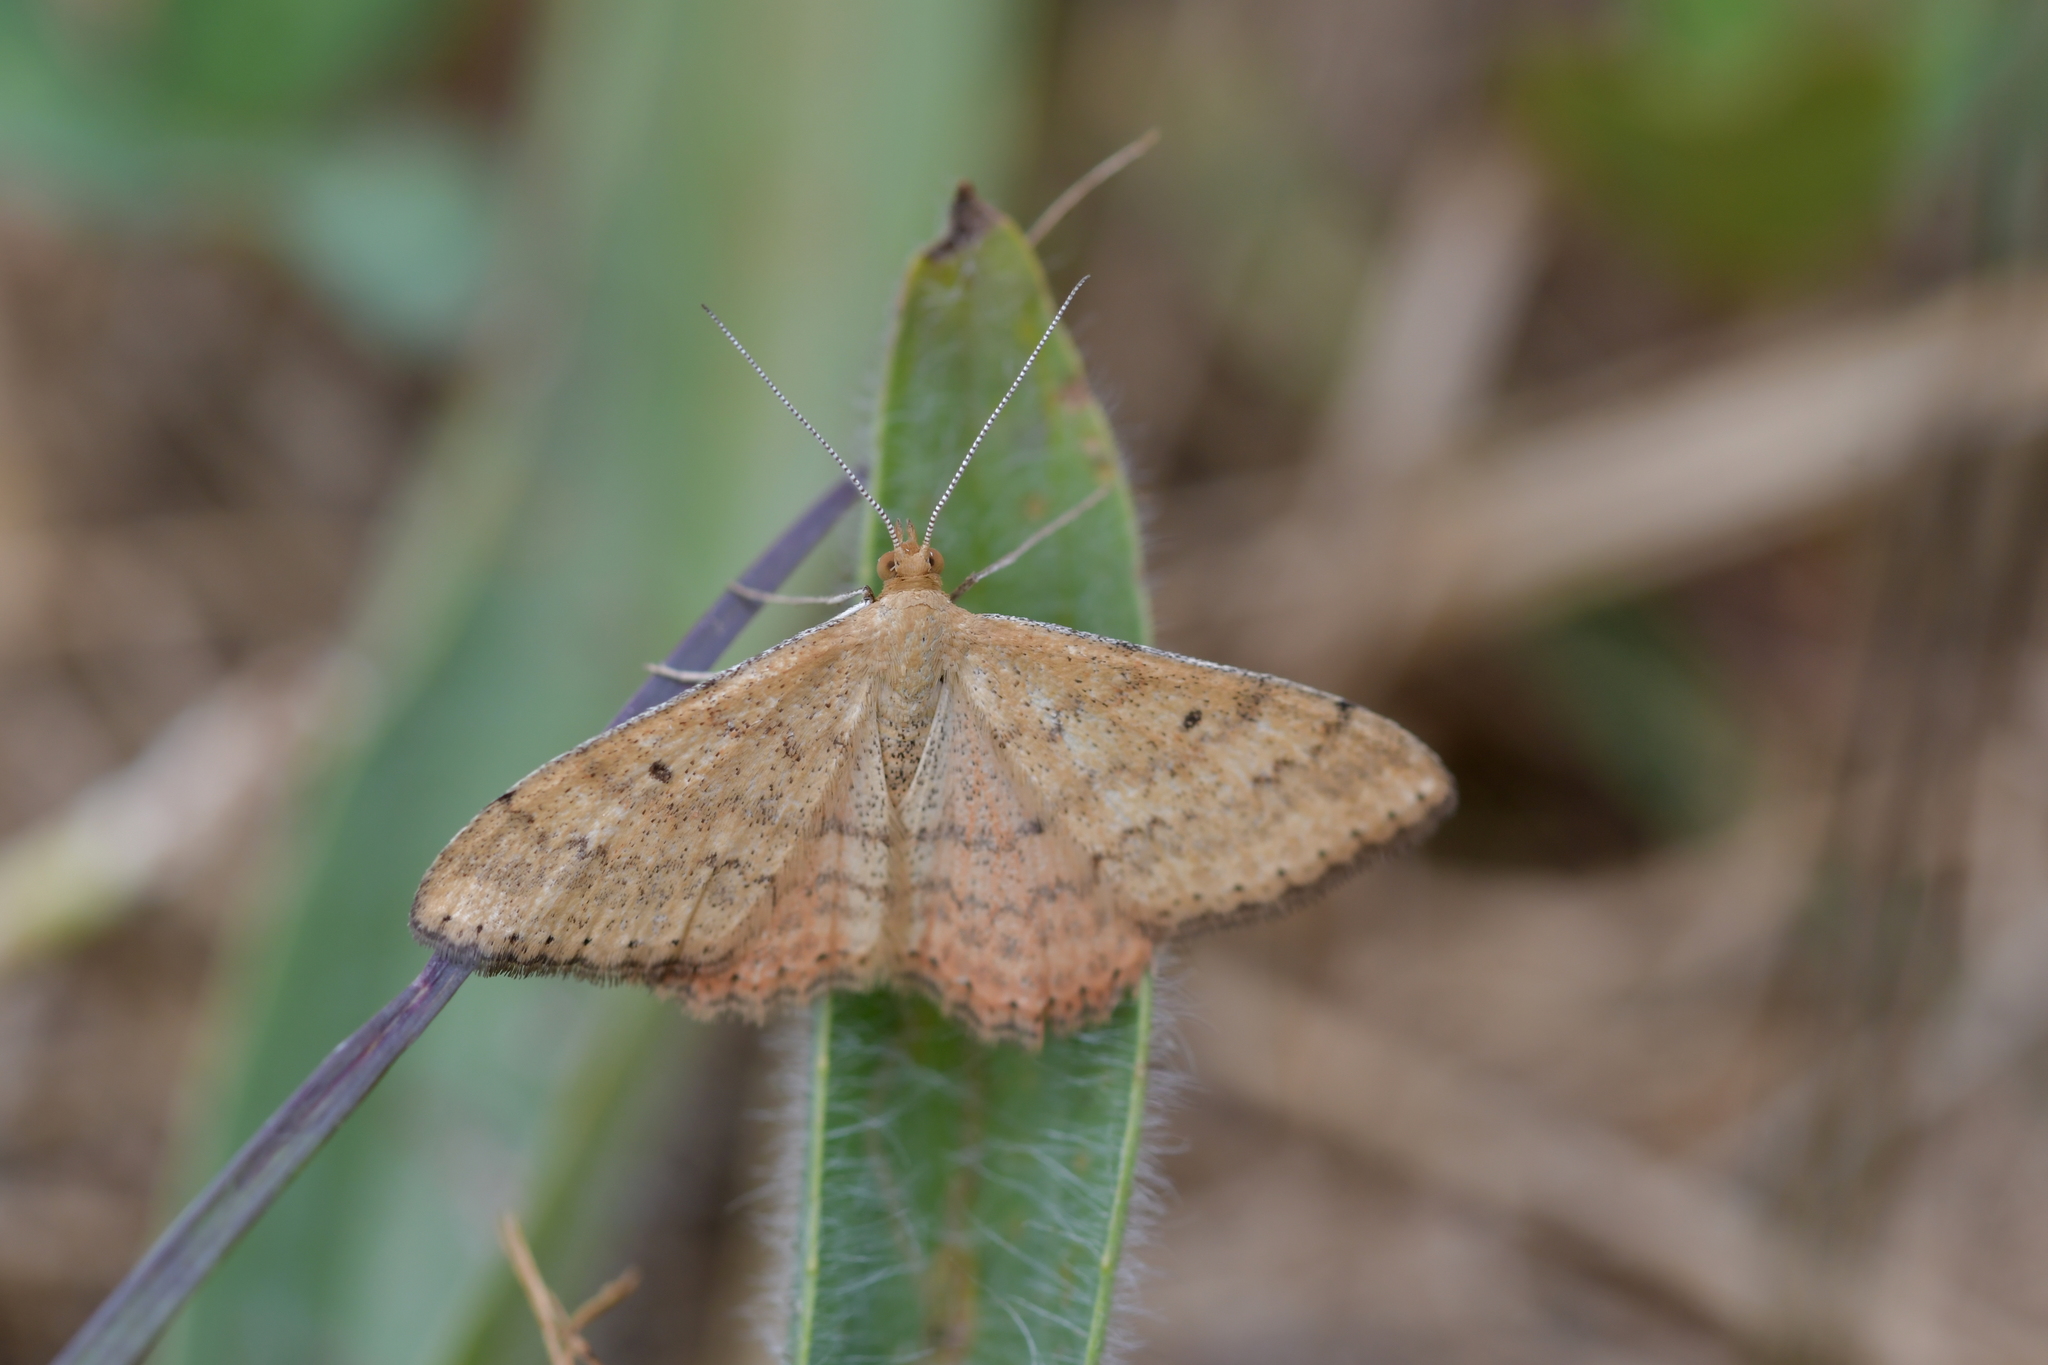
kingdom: Animalia
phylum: Arthropoda
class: Insecta
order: Lepidoptera
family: Geometridae
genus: Scopula
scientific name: Scopula rubraria
